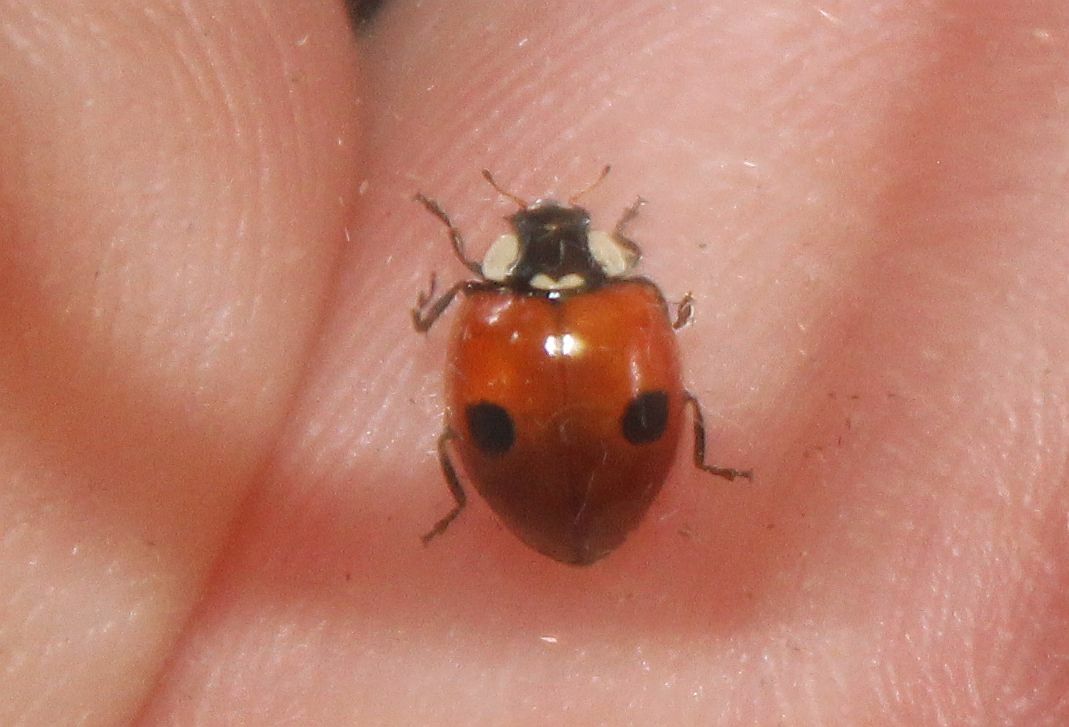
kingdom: Animalia
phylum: Arthropoda
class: Insecta
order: Coleoptera
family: Coccinellidae
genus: Adalia
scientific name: Adalia bipunctata
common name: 2-spot ladybird
